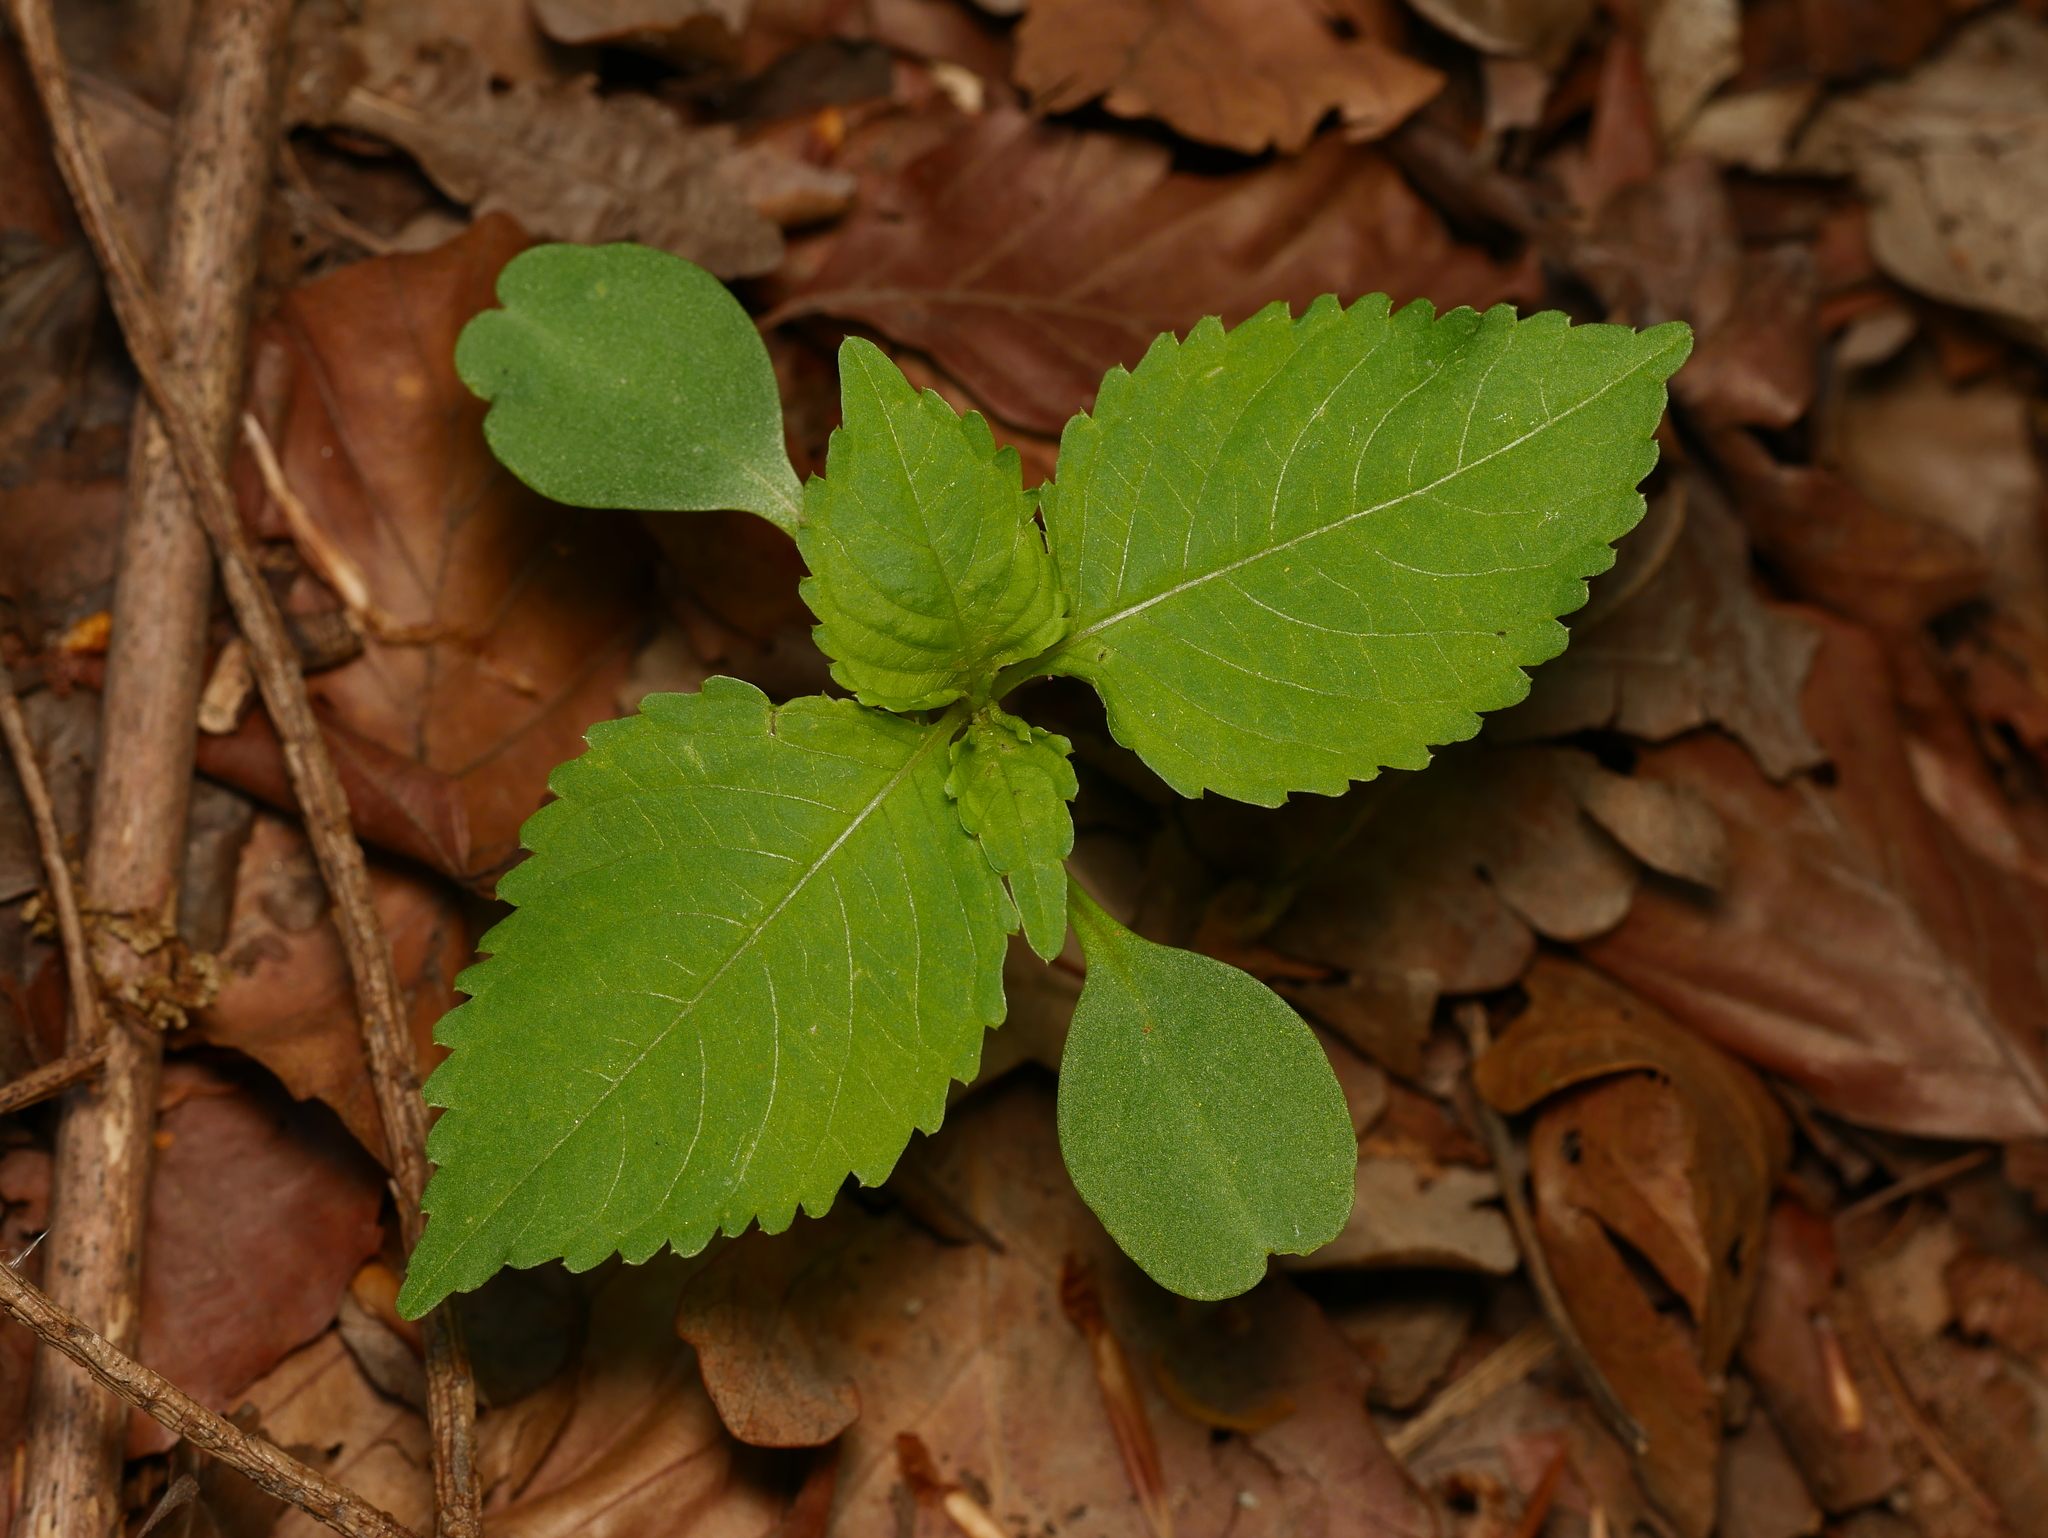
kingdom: Plantae
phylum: Tracheophyta
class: Magnoliopsida
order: Ericales
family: Balsaminaceae
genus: Impatiens
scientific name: Impatiens parviflora
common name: Small balsam
